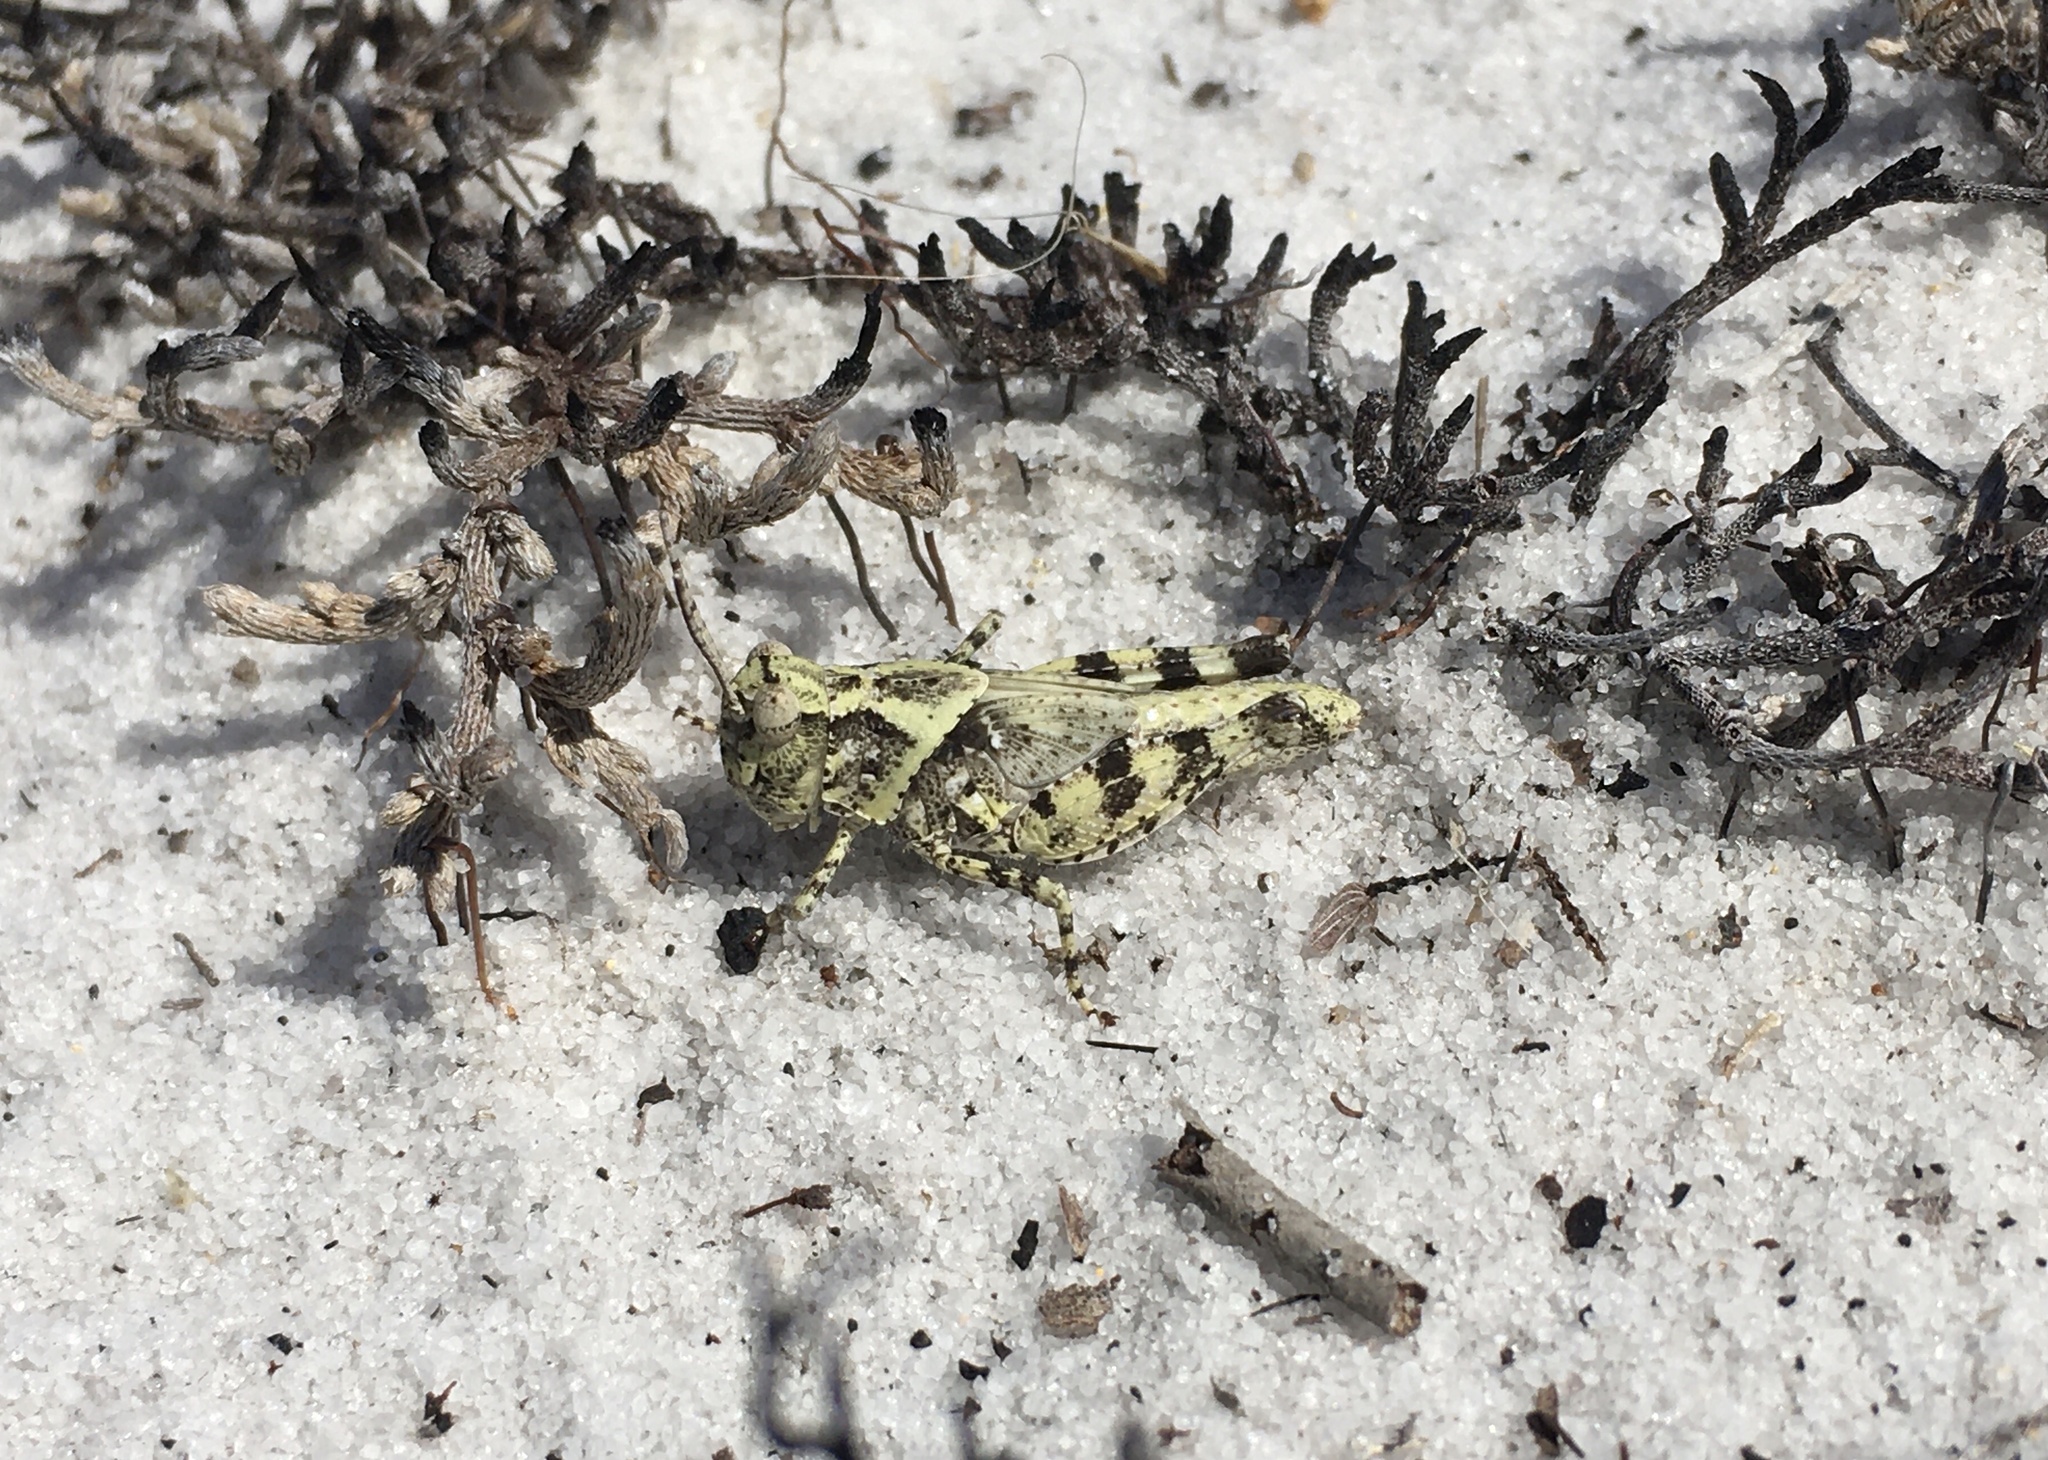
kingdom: Animalia
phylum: Arthropoda
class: Insecta
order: Orthoptera
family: Acrididae
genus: Spharagemon
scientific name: Spharagemon marmoratum
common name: Marbled grasshopper
